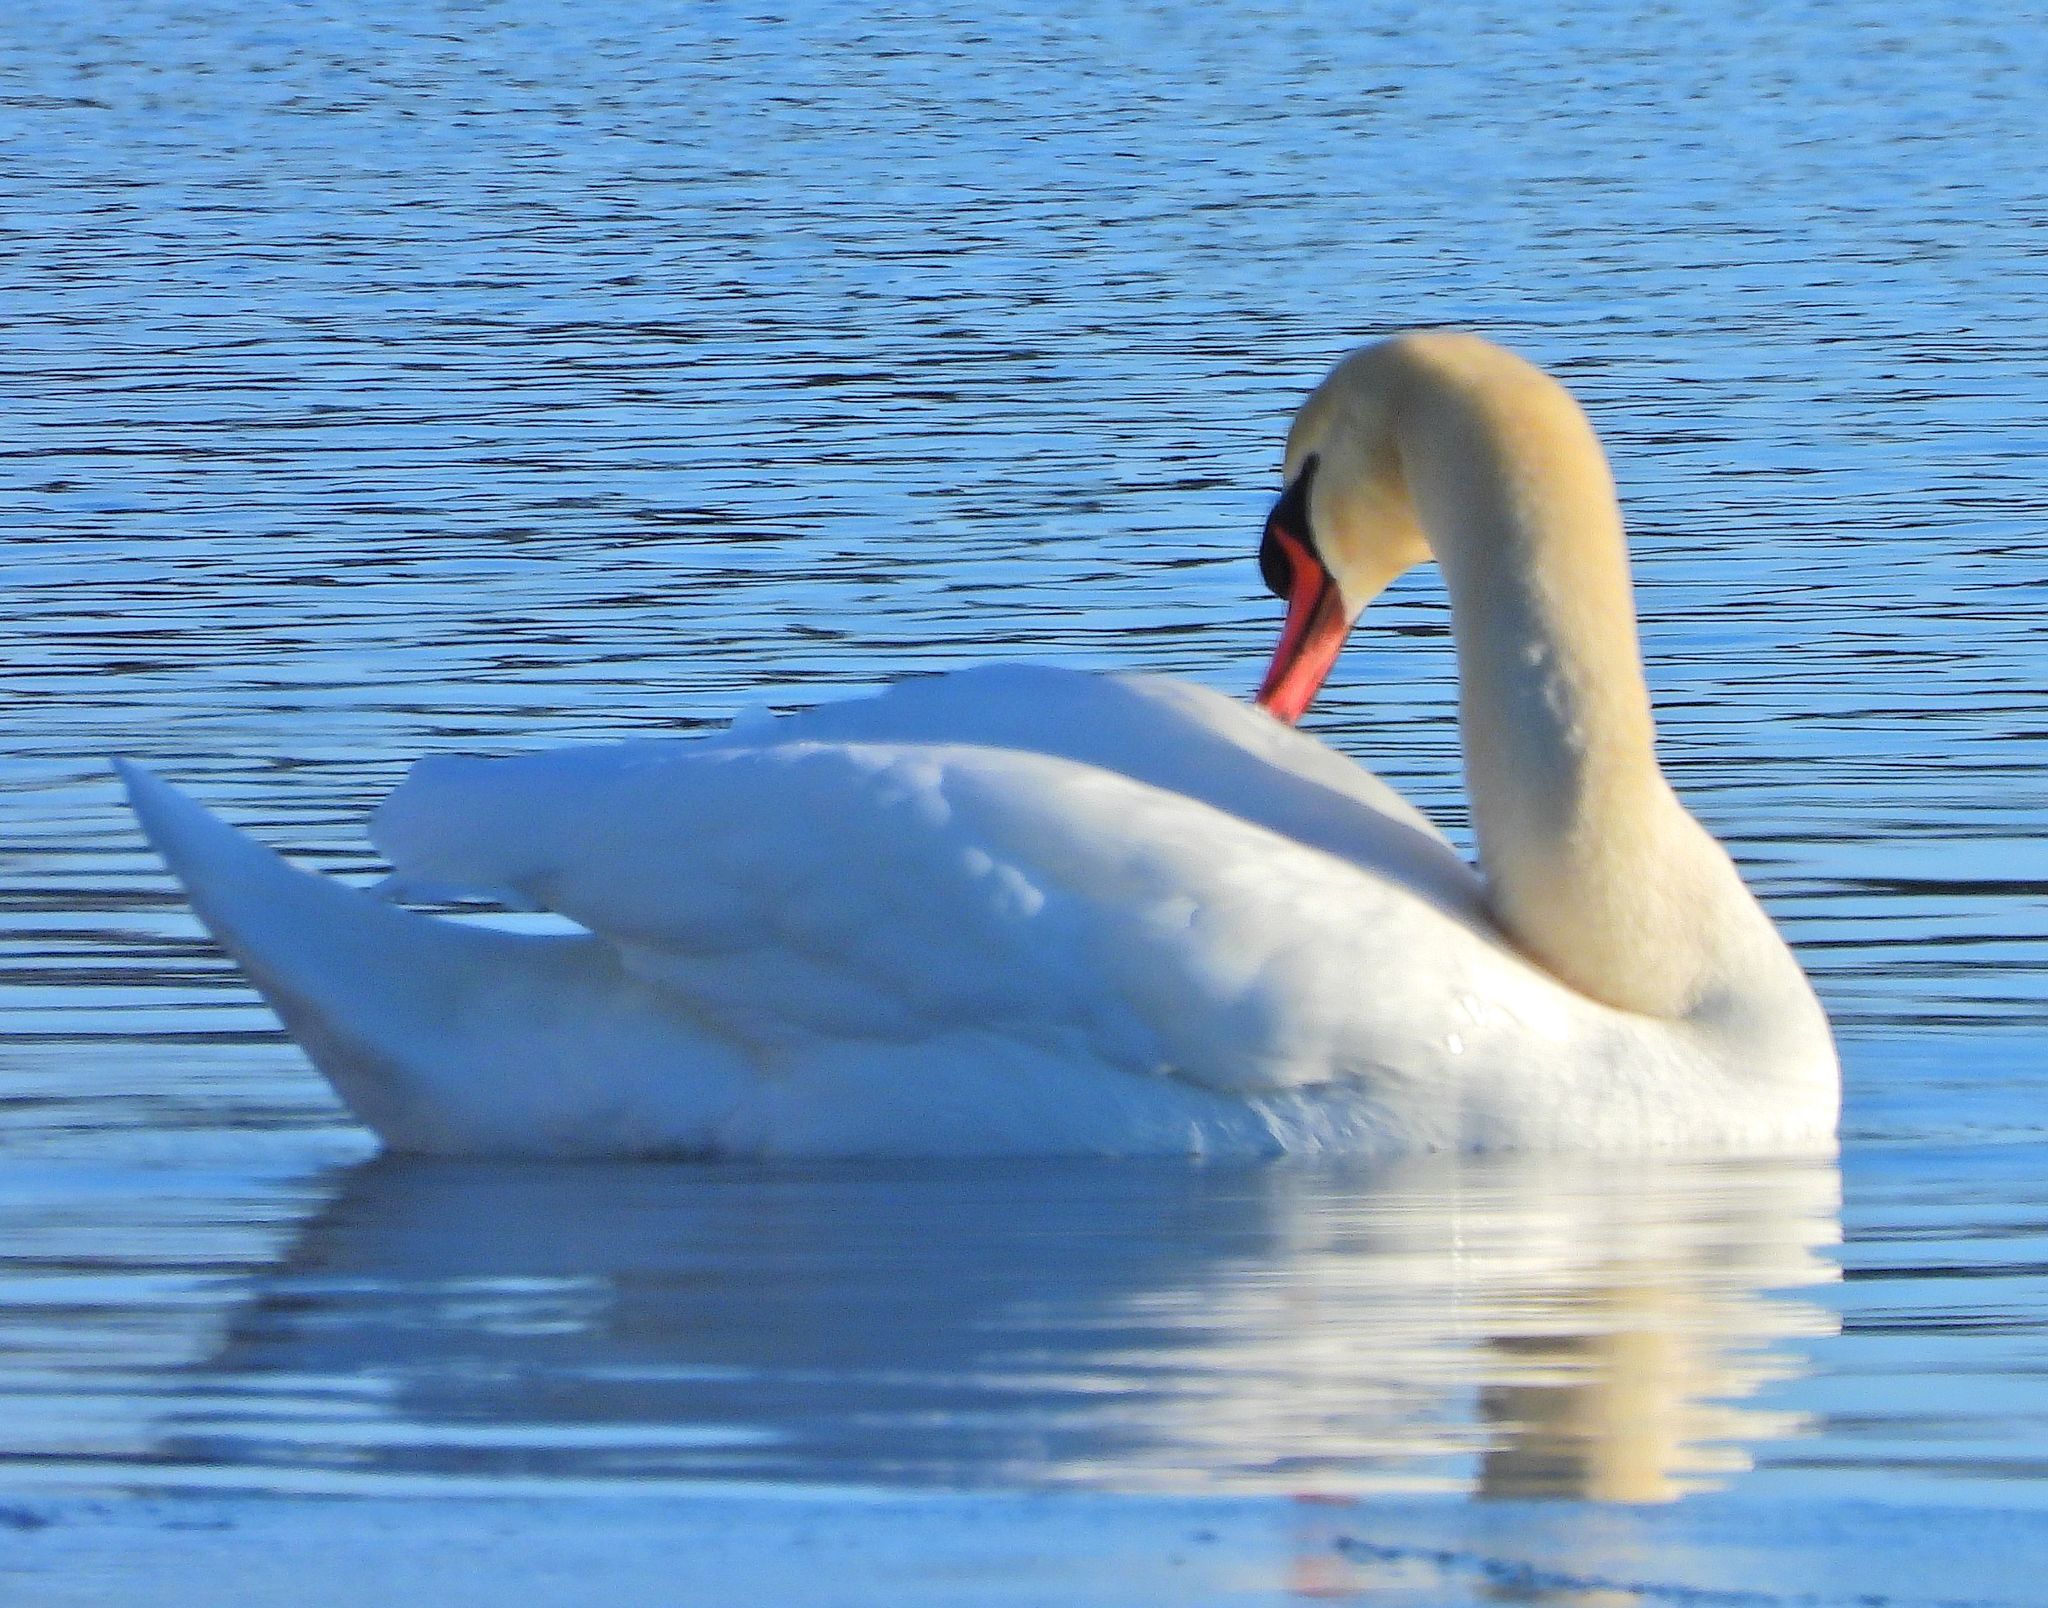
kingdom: Animalia
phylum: Chordata
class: Aves
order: Anseriformes
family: Anatidae
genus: Cygnus
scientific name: Cygnus olor
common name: Mute swan
